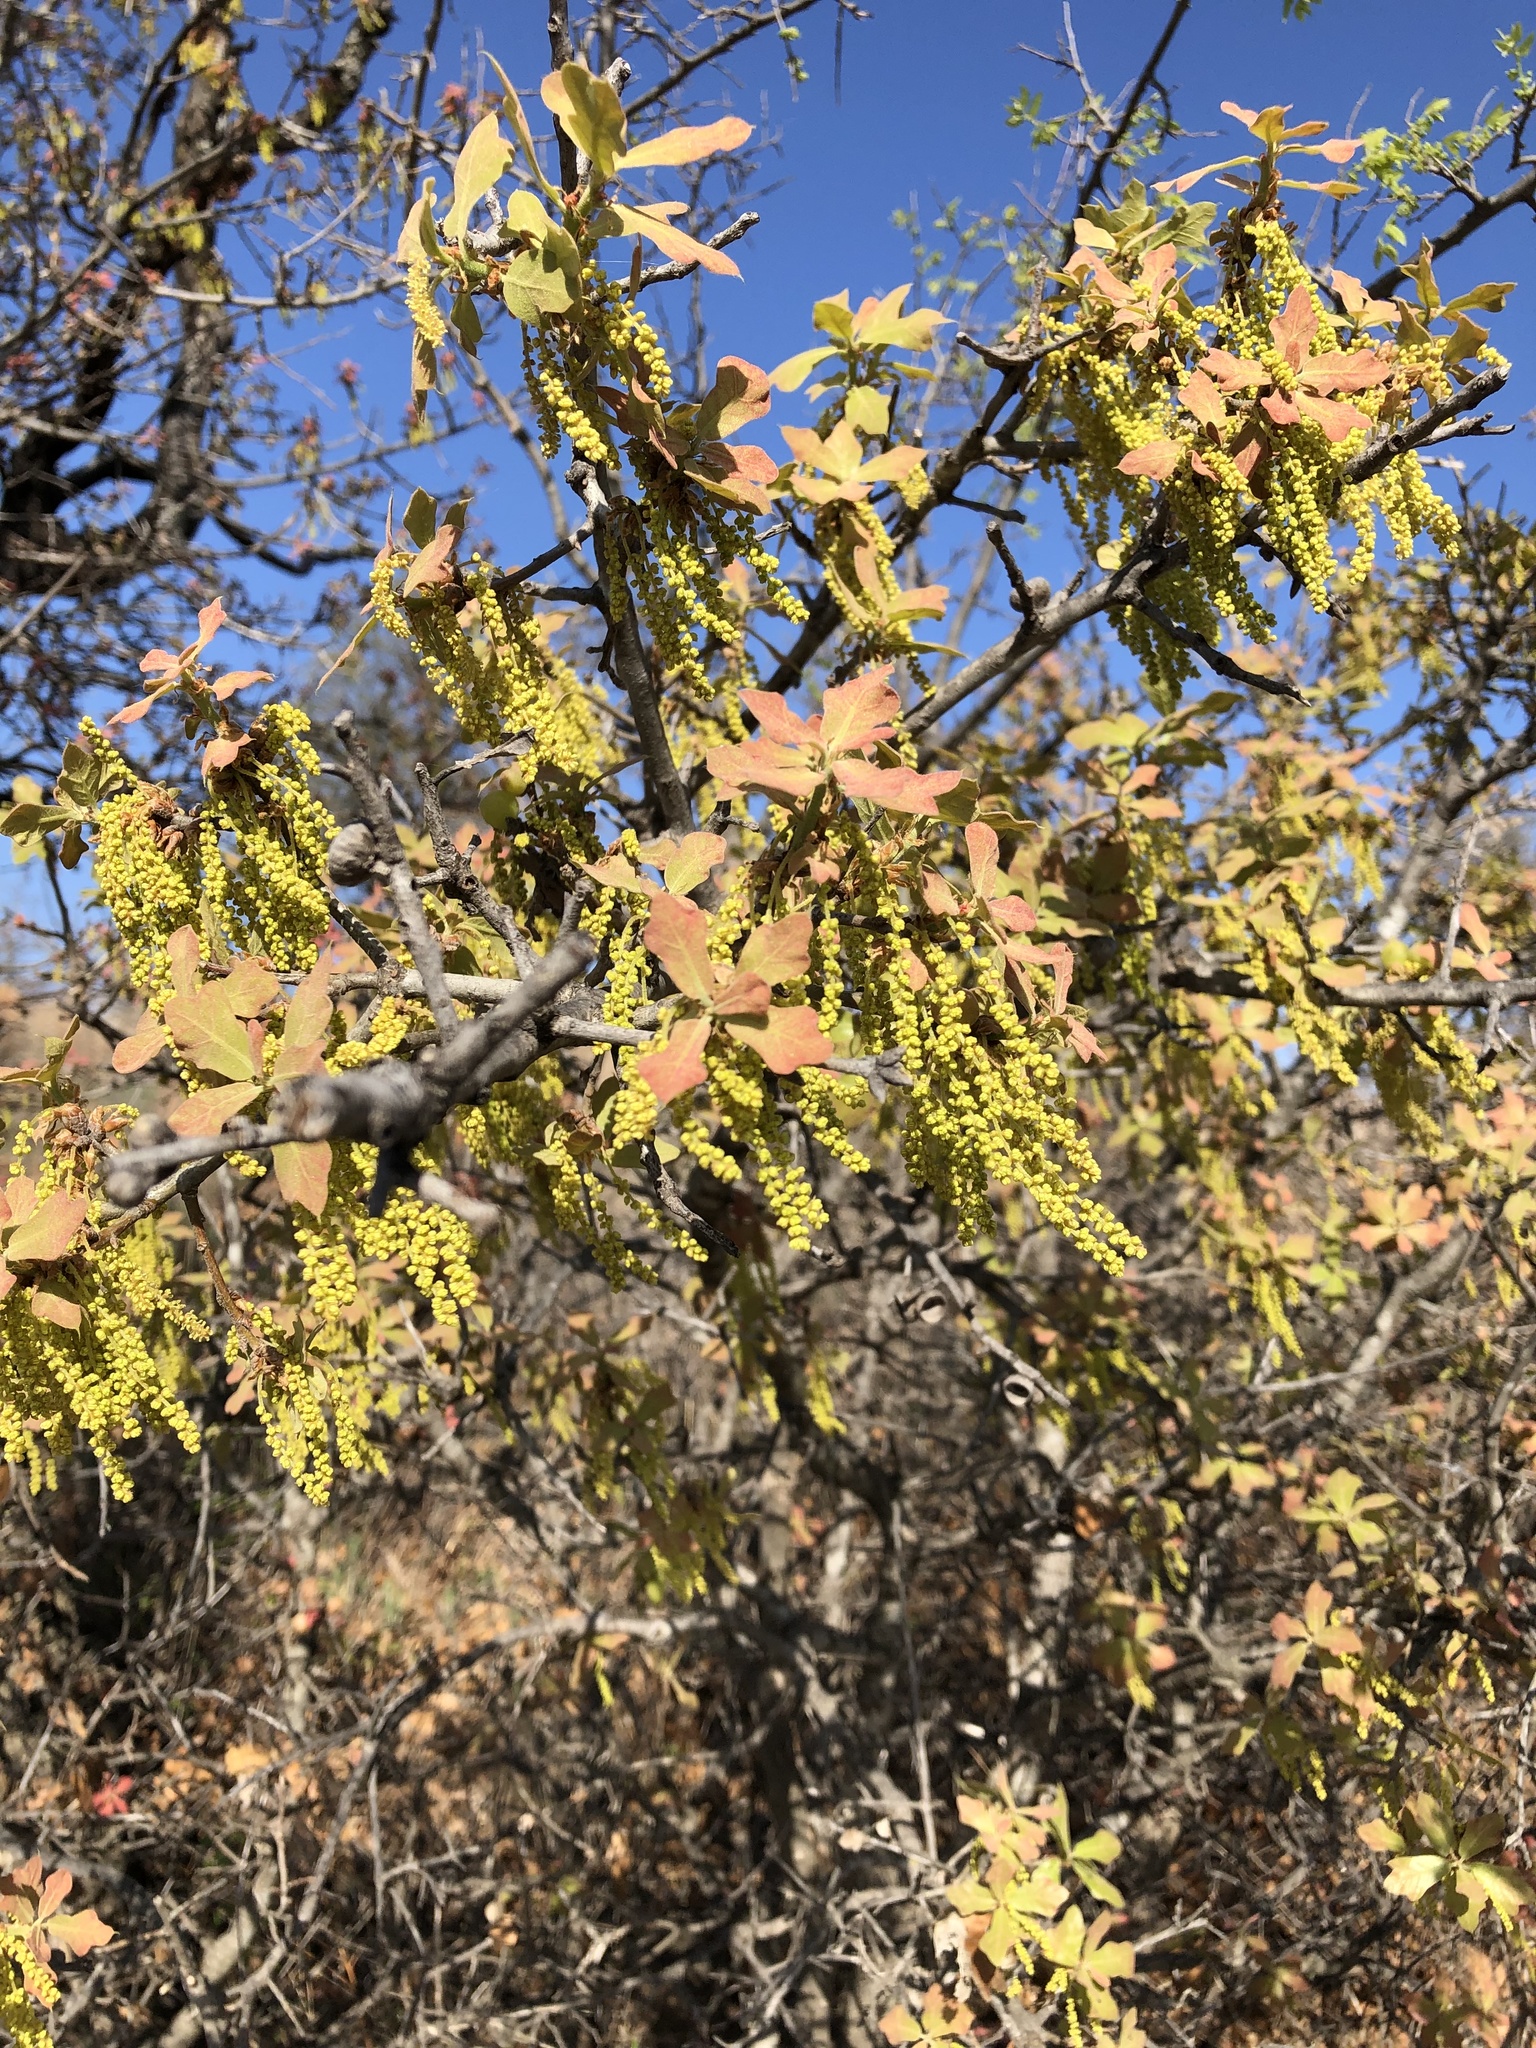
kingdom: Plantae
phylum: Tracheophyta
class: Magnoliopsida
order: Fagales
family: Fagaceae
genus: Quercus
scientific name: Quercus stellata
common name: Post oak
